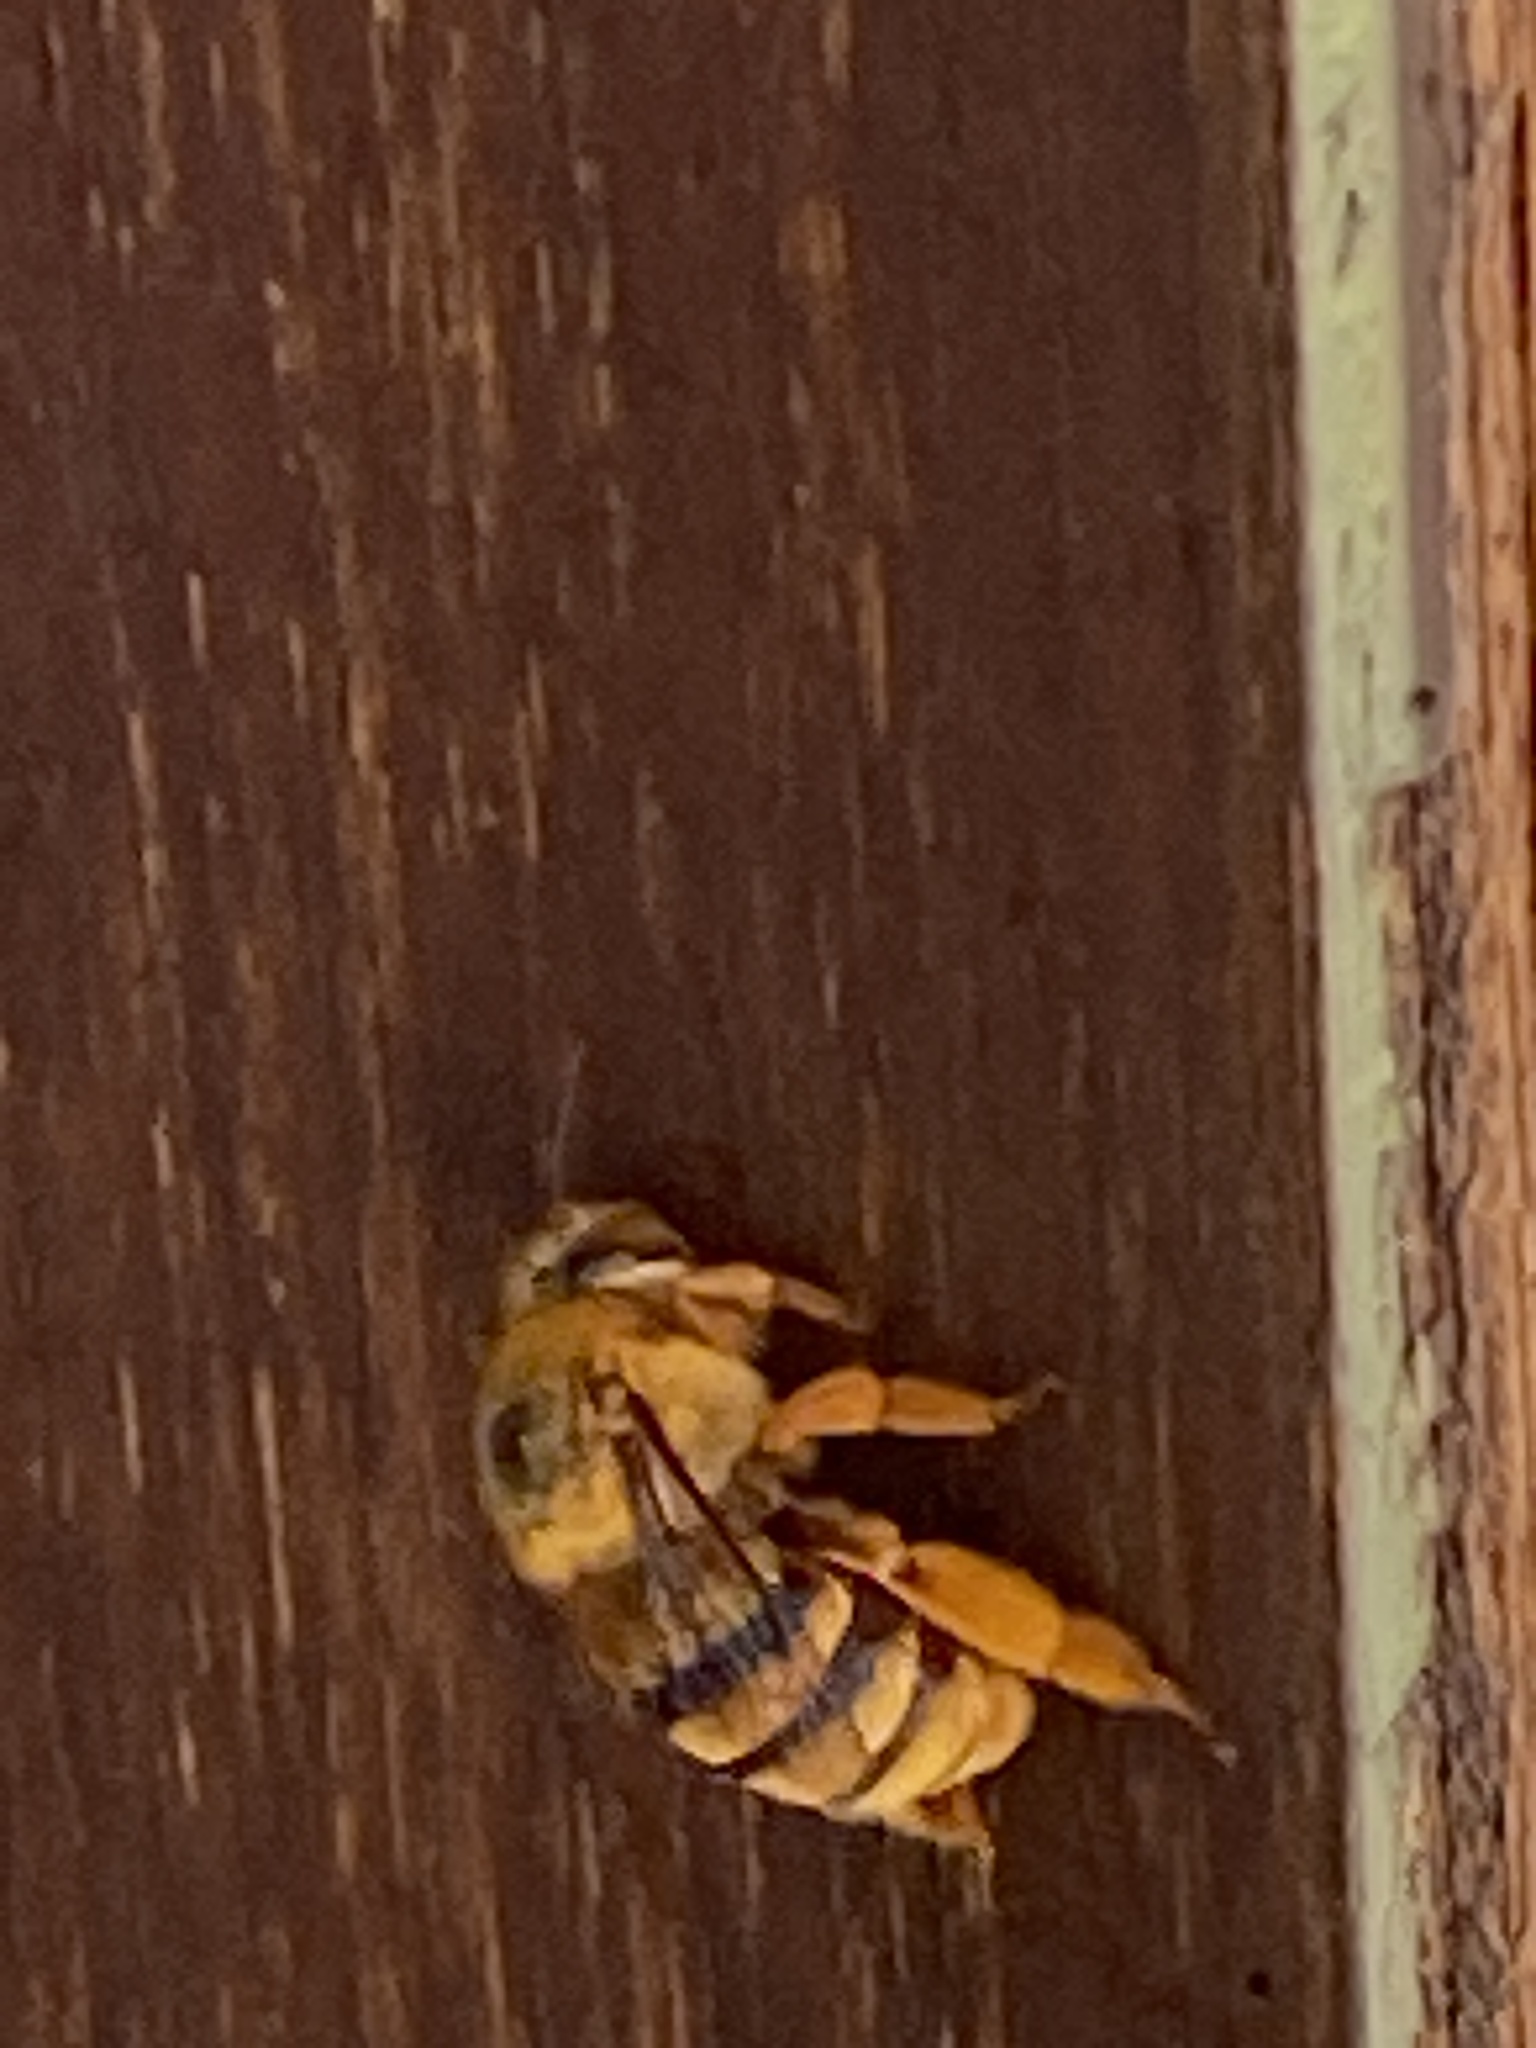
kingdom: Animalia
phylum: Arthropoda
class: Insecta
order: Hymenoptera
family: Apidae
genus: Amegilla
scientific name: Amegilla bombiformis
